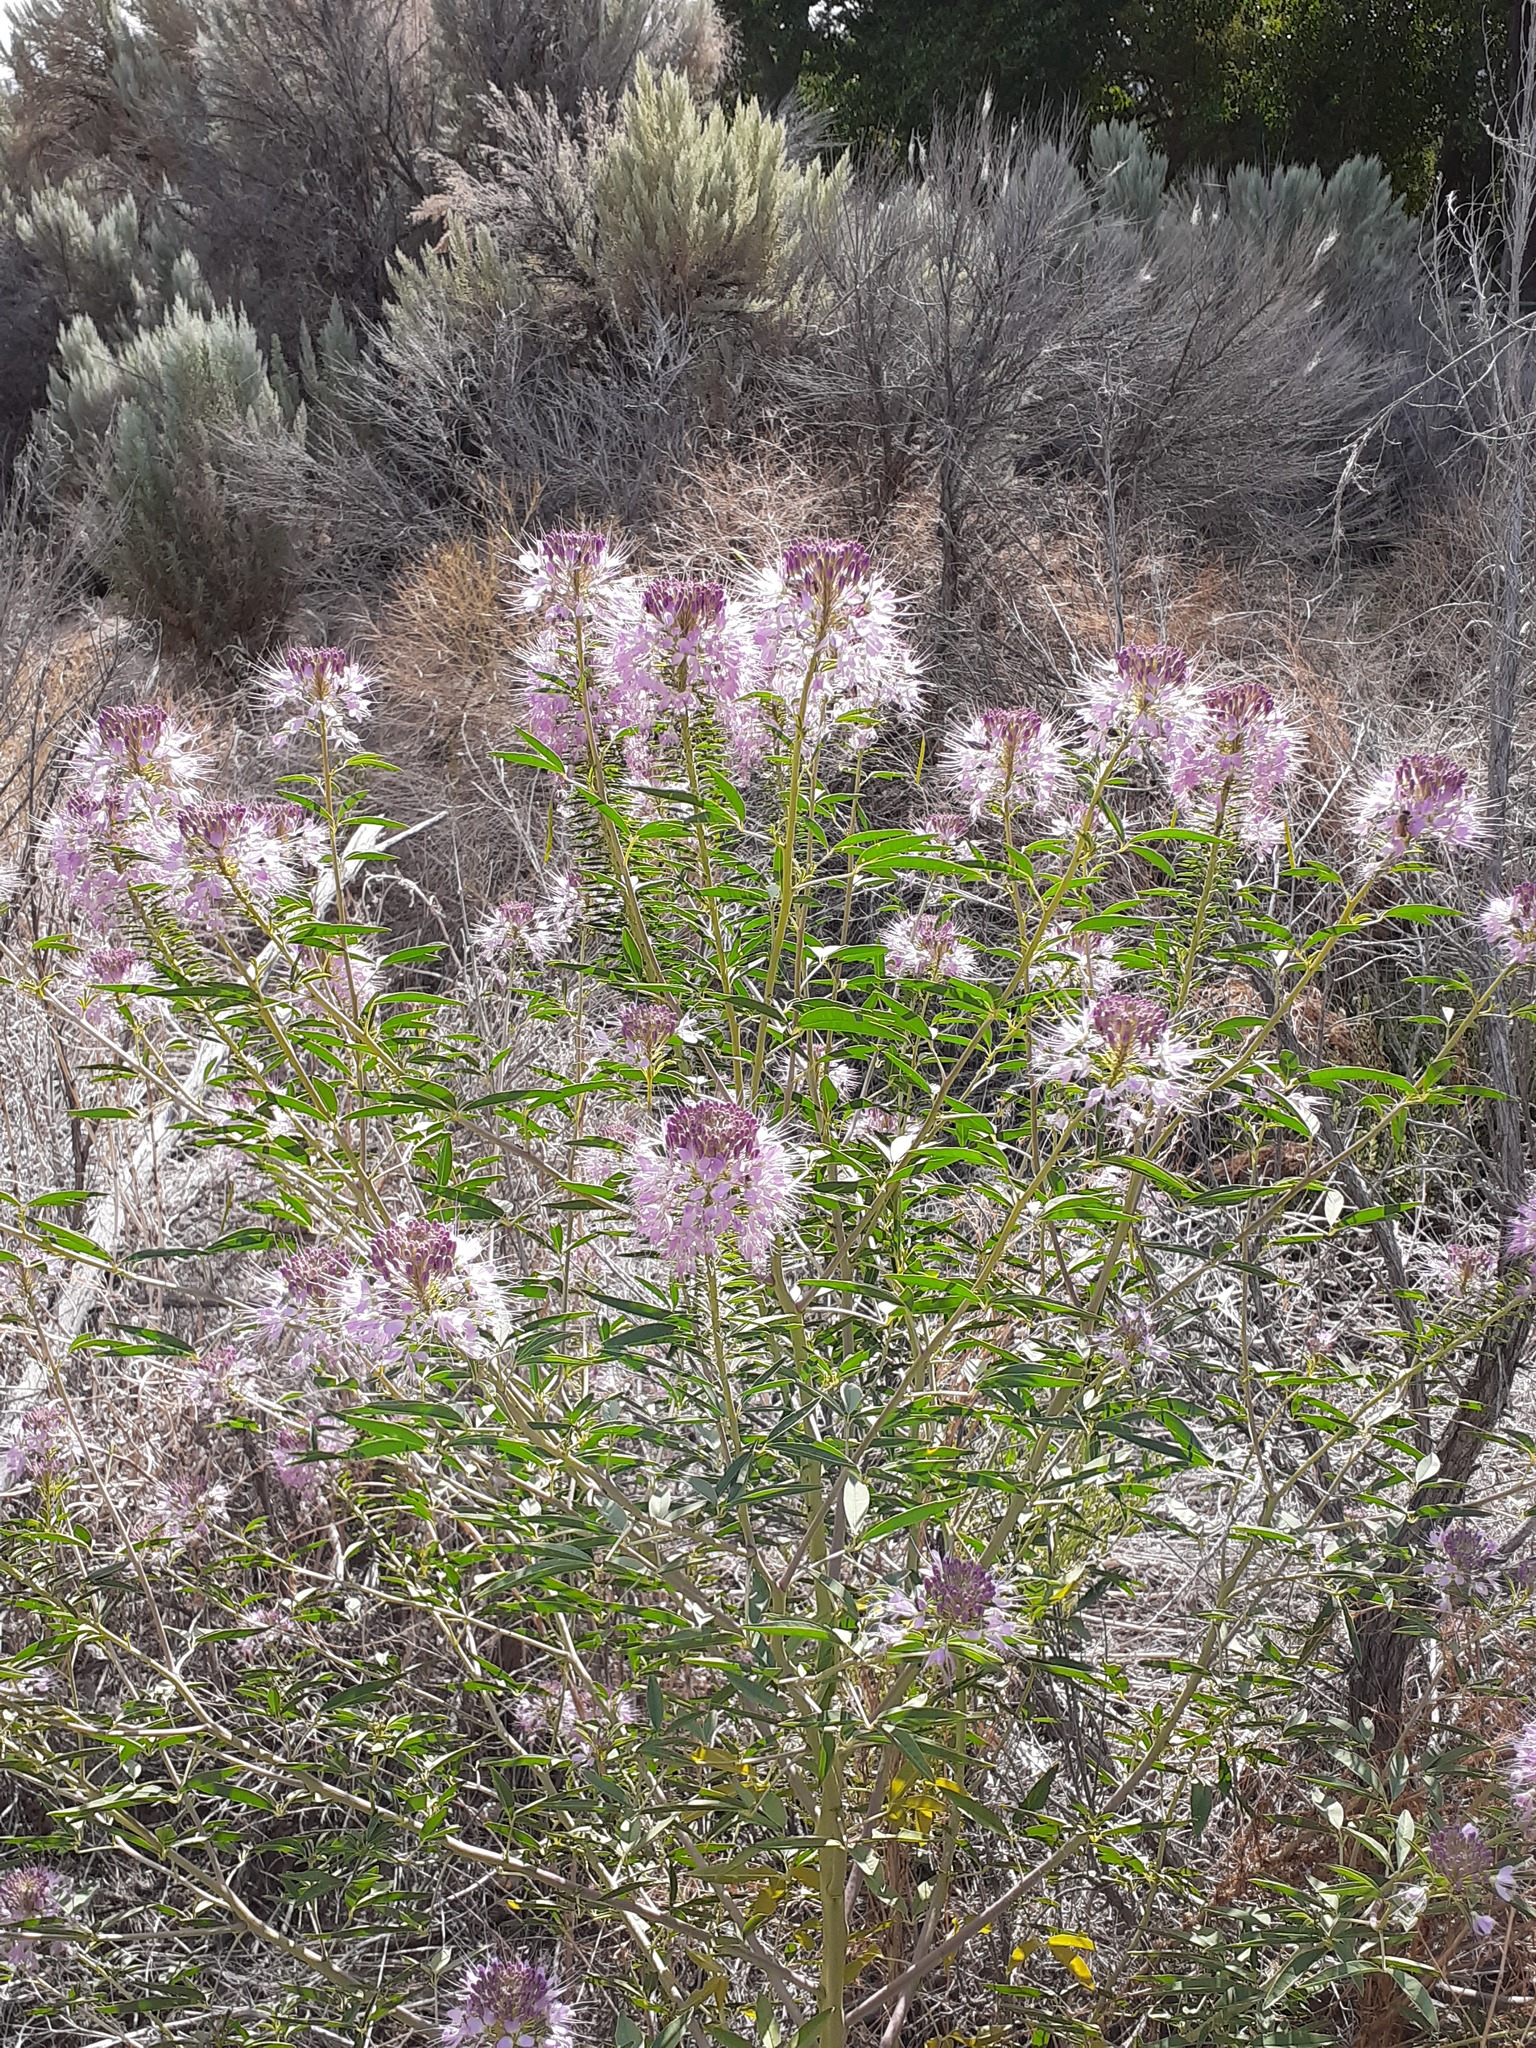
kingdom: Plantae
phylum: Tracheophyta
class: Magnoliopsida
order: Brassicales
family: Cleomaceae
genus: Cleomella
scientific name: Cleomella serrulata
